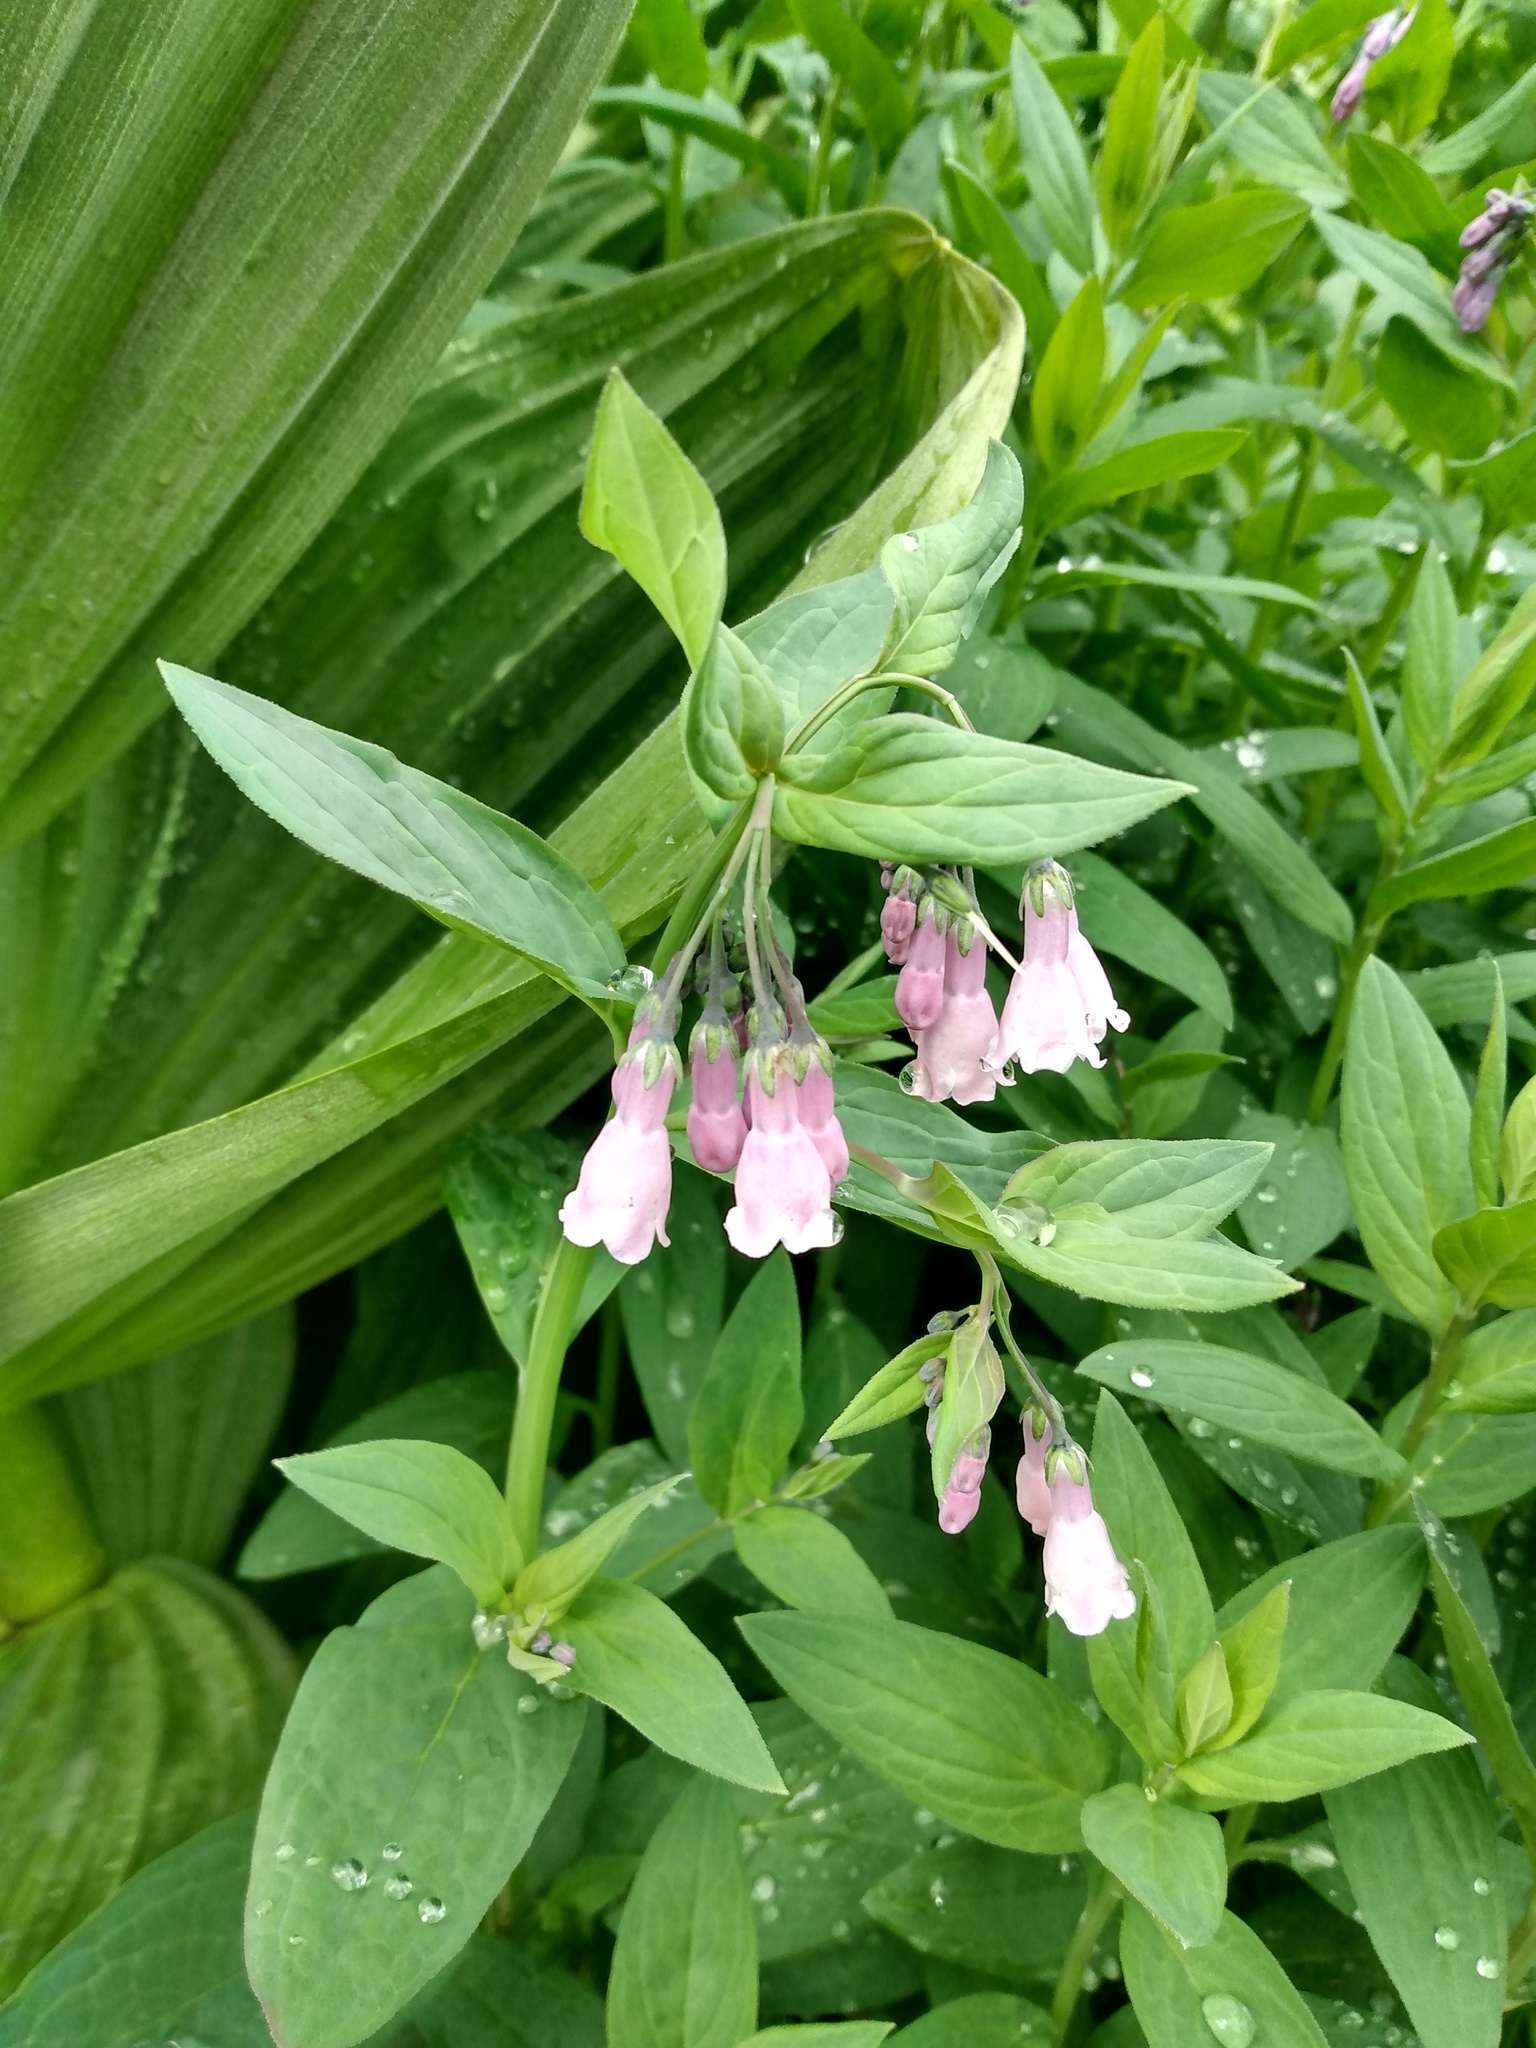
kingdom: Plantae
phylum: Tracheophyta
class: Magnoliopsida
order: Boraginales
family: Boraginaceae
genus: Mertensia
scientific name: Mertensia ciliata
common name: Tall chiming-bells
